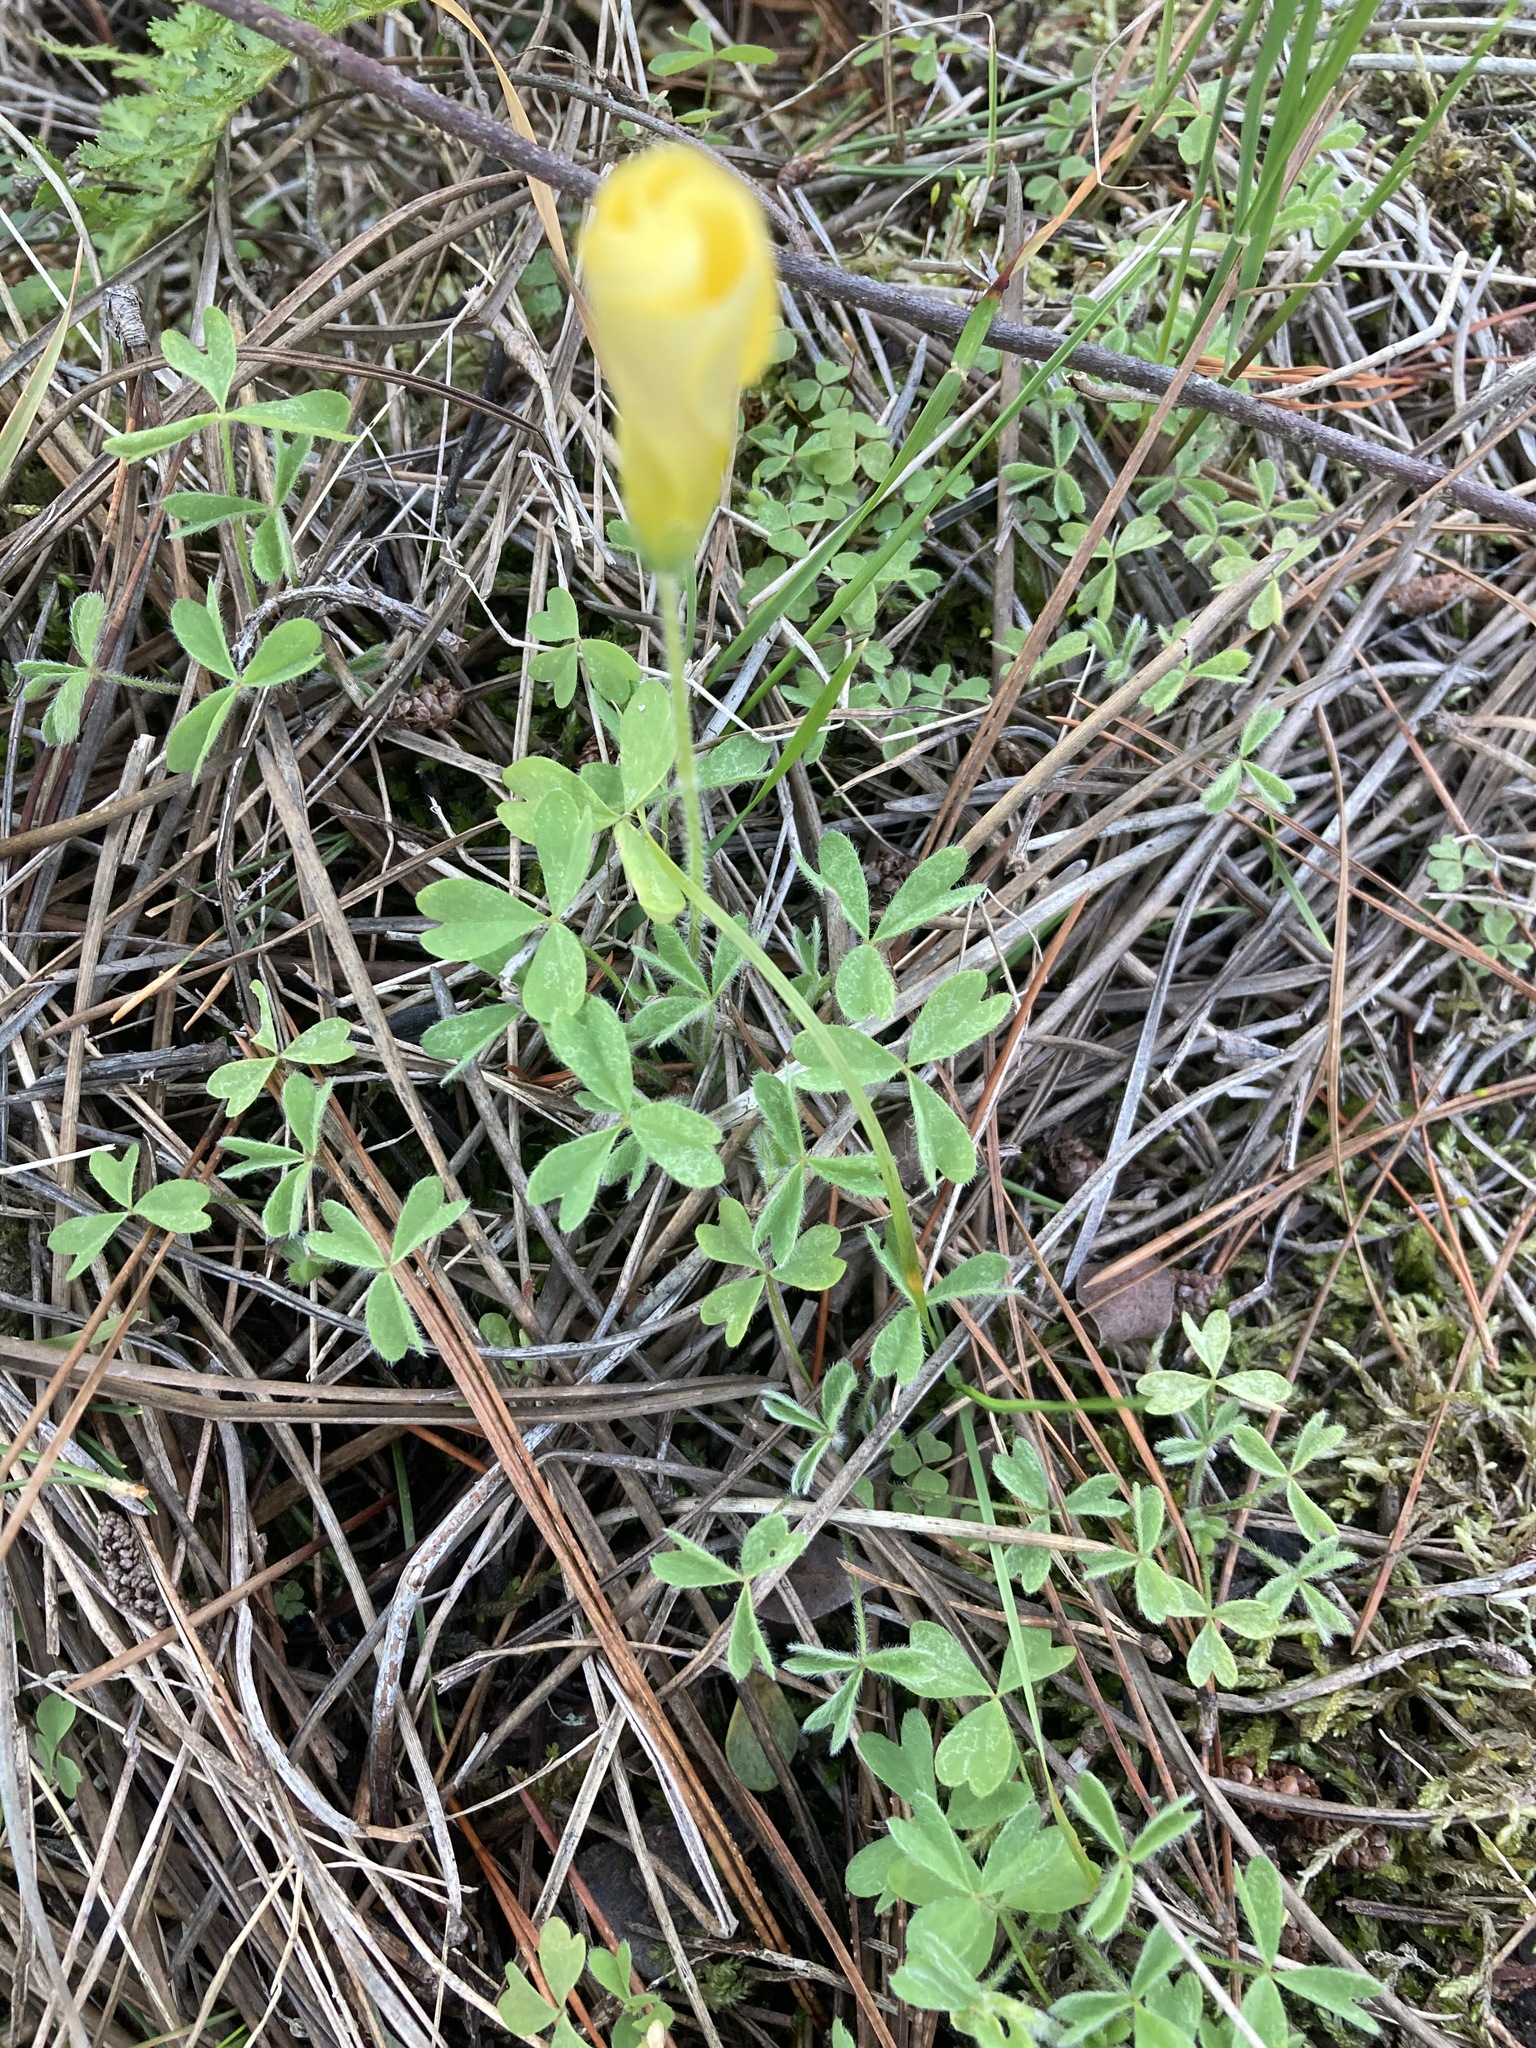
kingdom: Plantae
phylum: Tracheophyta
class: Magnoliopsida
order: Oxalidales
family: Oxalidaceae
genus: Oxalis
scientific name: Oxalis obtusa
